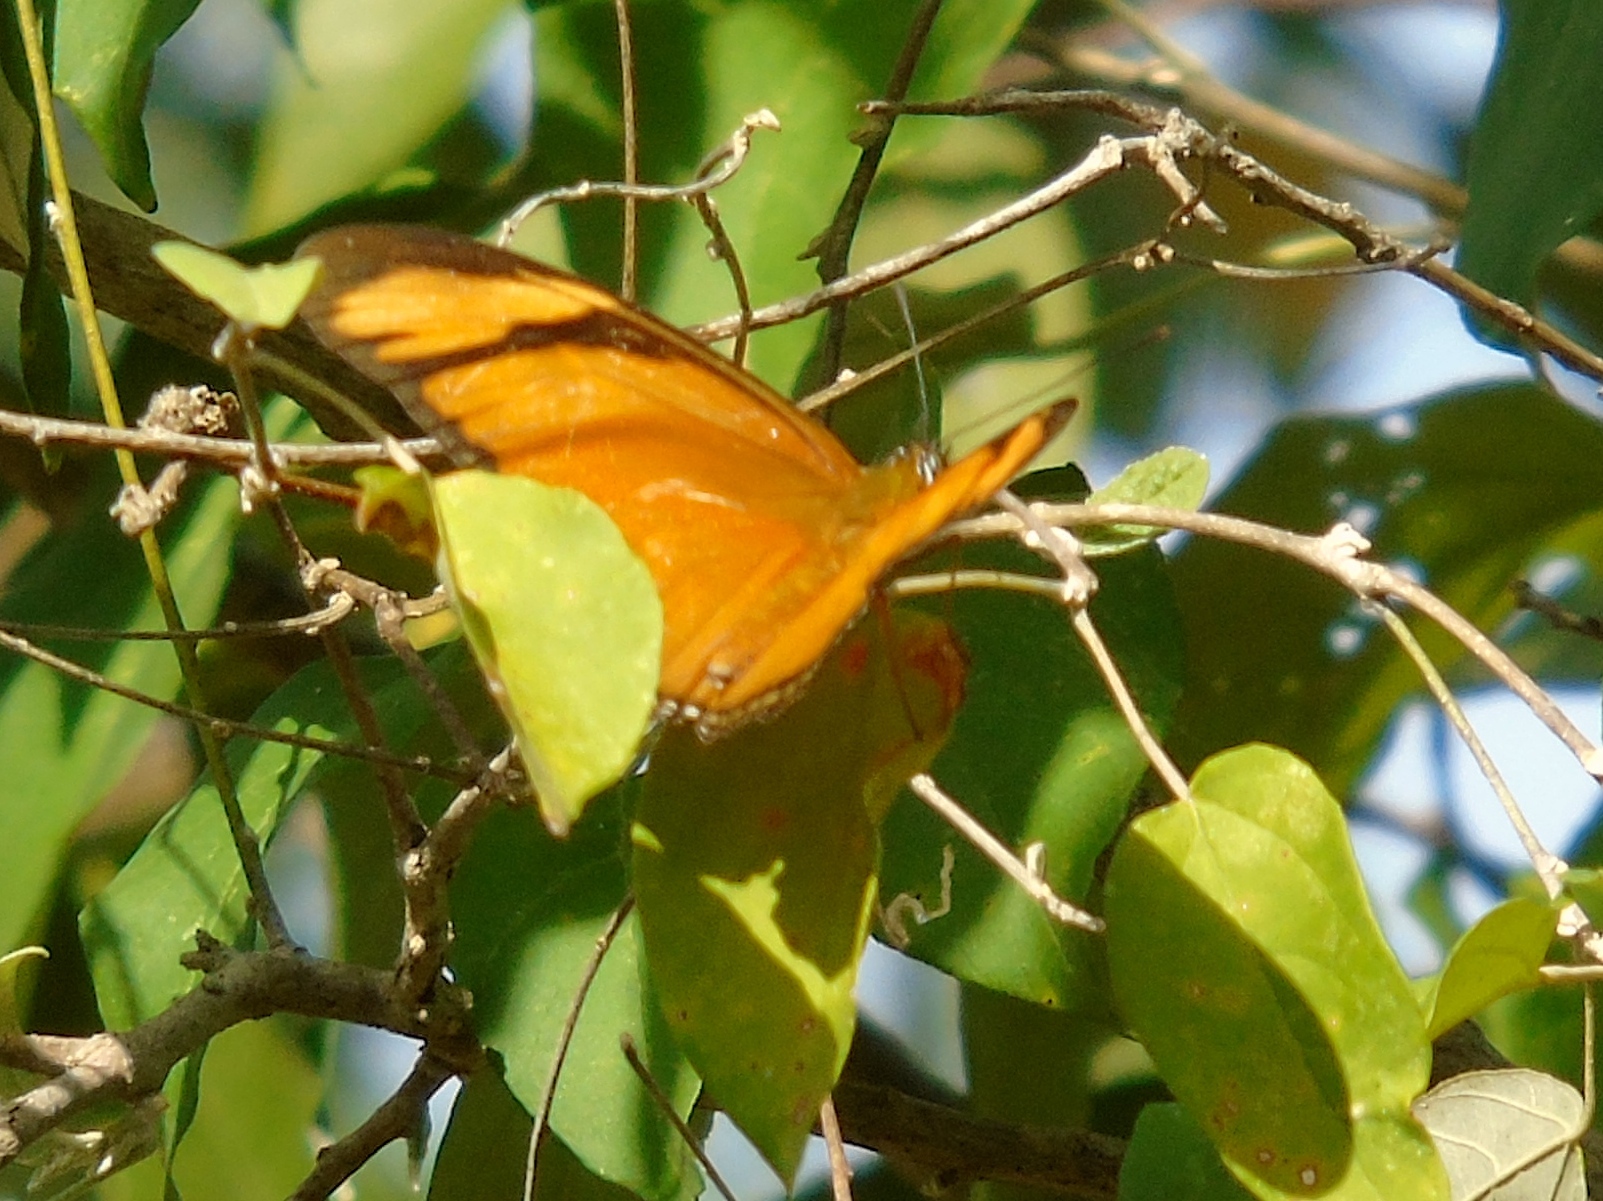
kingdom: Animalia
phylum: Arthropoda
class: Insecta
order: Lepidoptera
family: Nymphalidae
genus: Dryas
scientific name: Dryas iulia
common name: Flambeau
